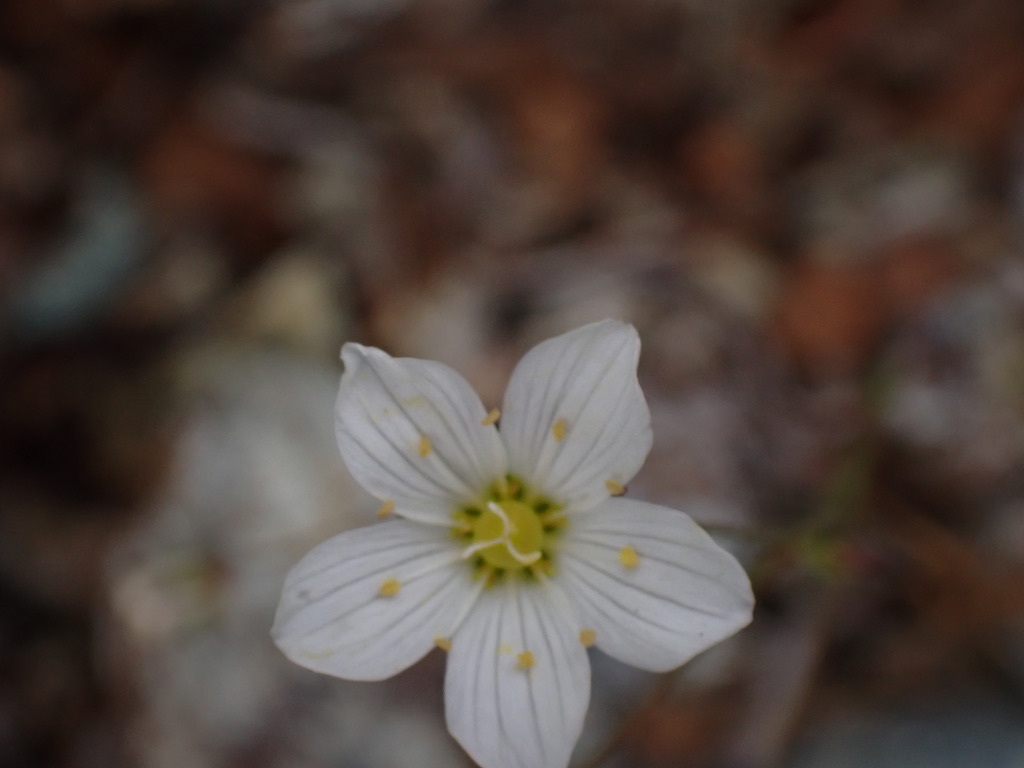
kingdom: Plantae
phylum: Tracheophyta
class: Magnoliopsida
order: Caryophyllales
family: Caryophyllaceae
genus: Sabulina
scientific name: Sabulina douglasii
